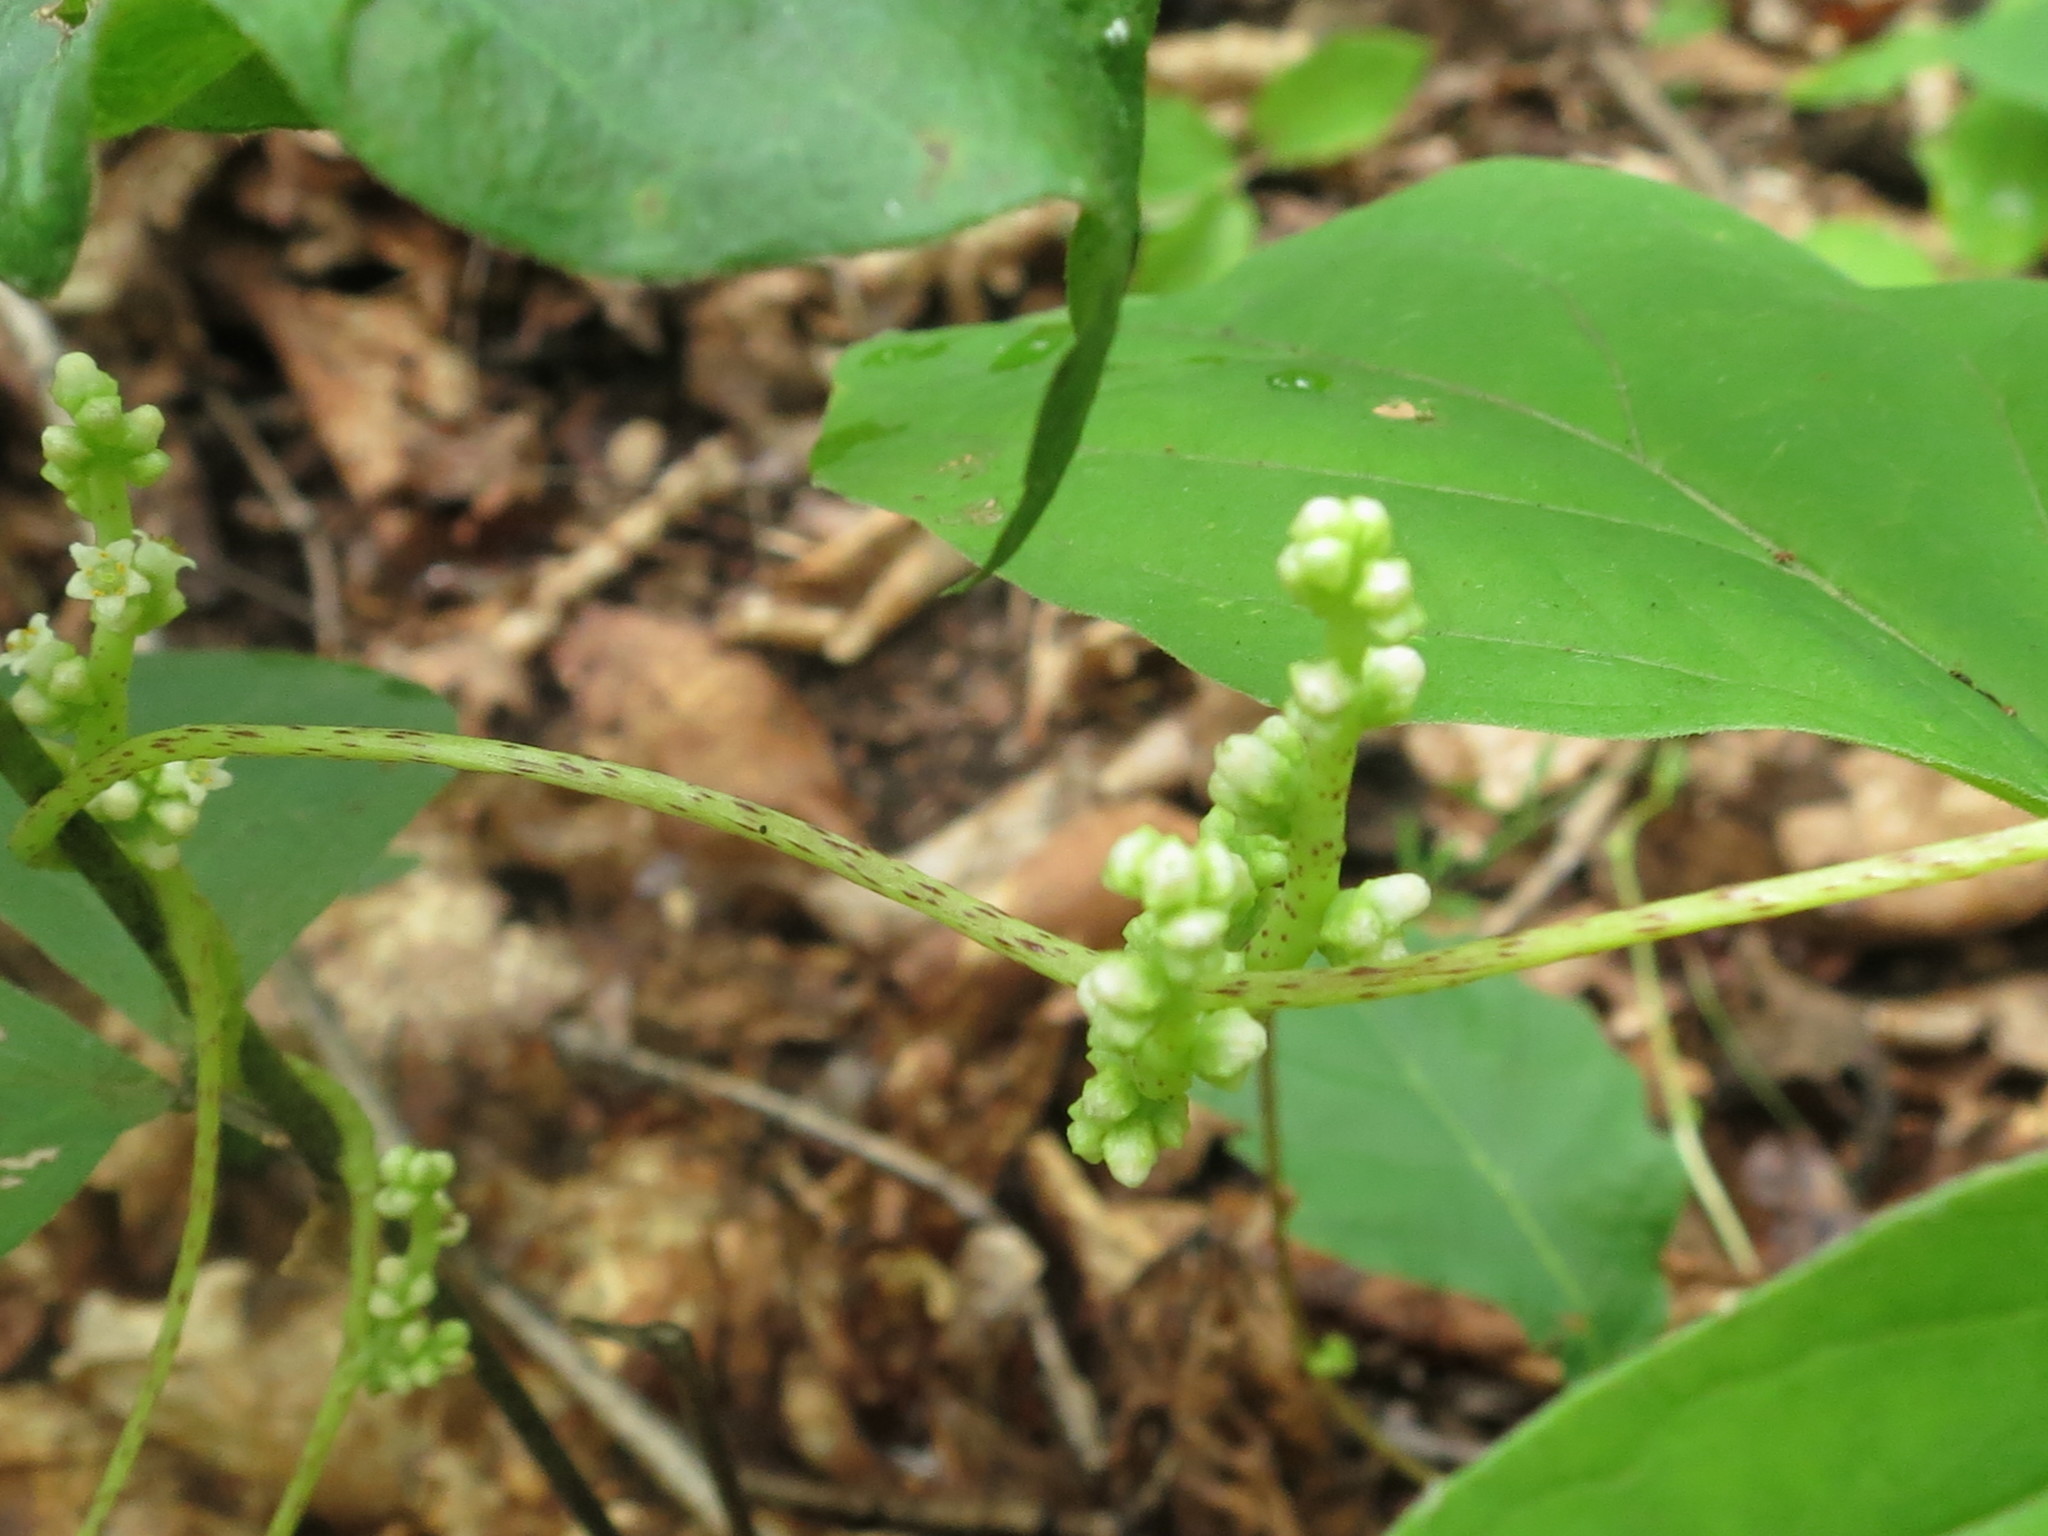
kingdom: Plantae
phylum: Tracheophyta
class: Magnoliopsida
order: Solanales
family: Convolvulaceae
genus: Cuscuta
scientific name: Cuscuta japonica
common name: Japanese dodder
